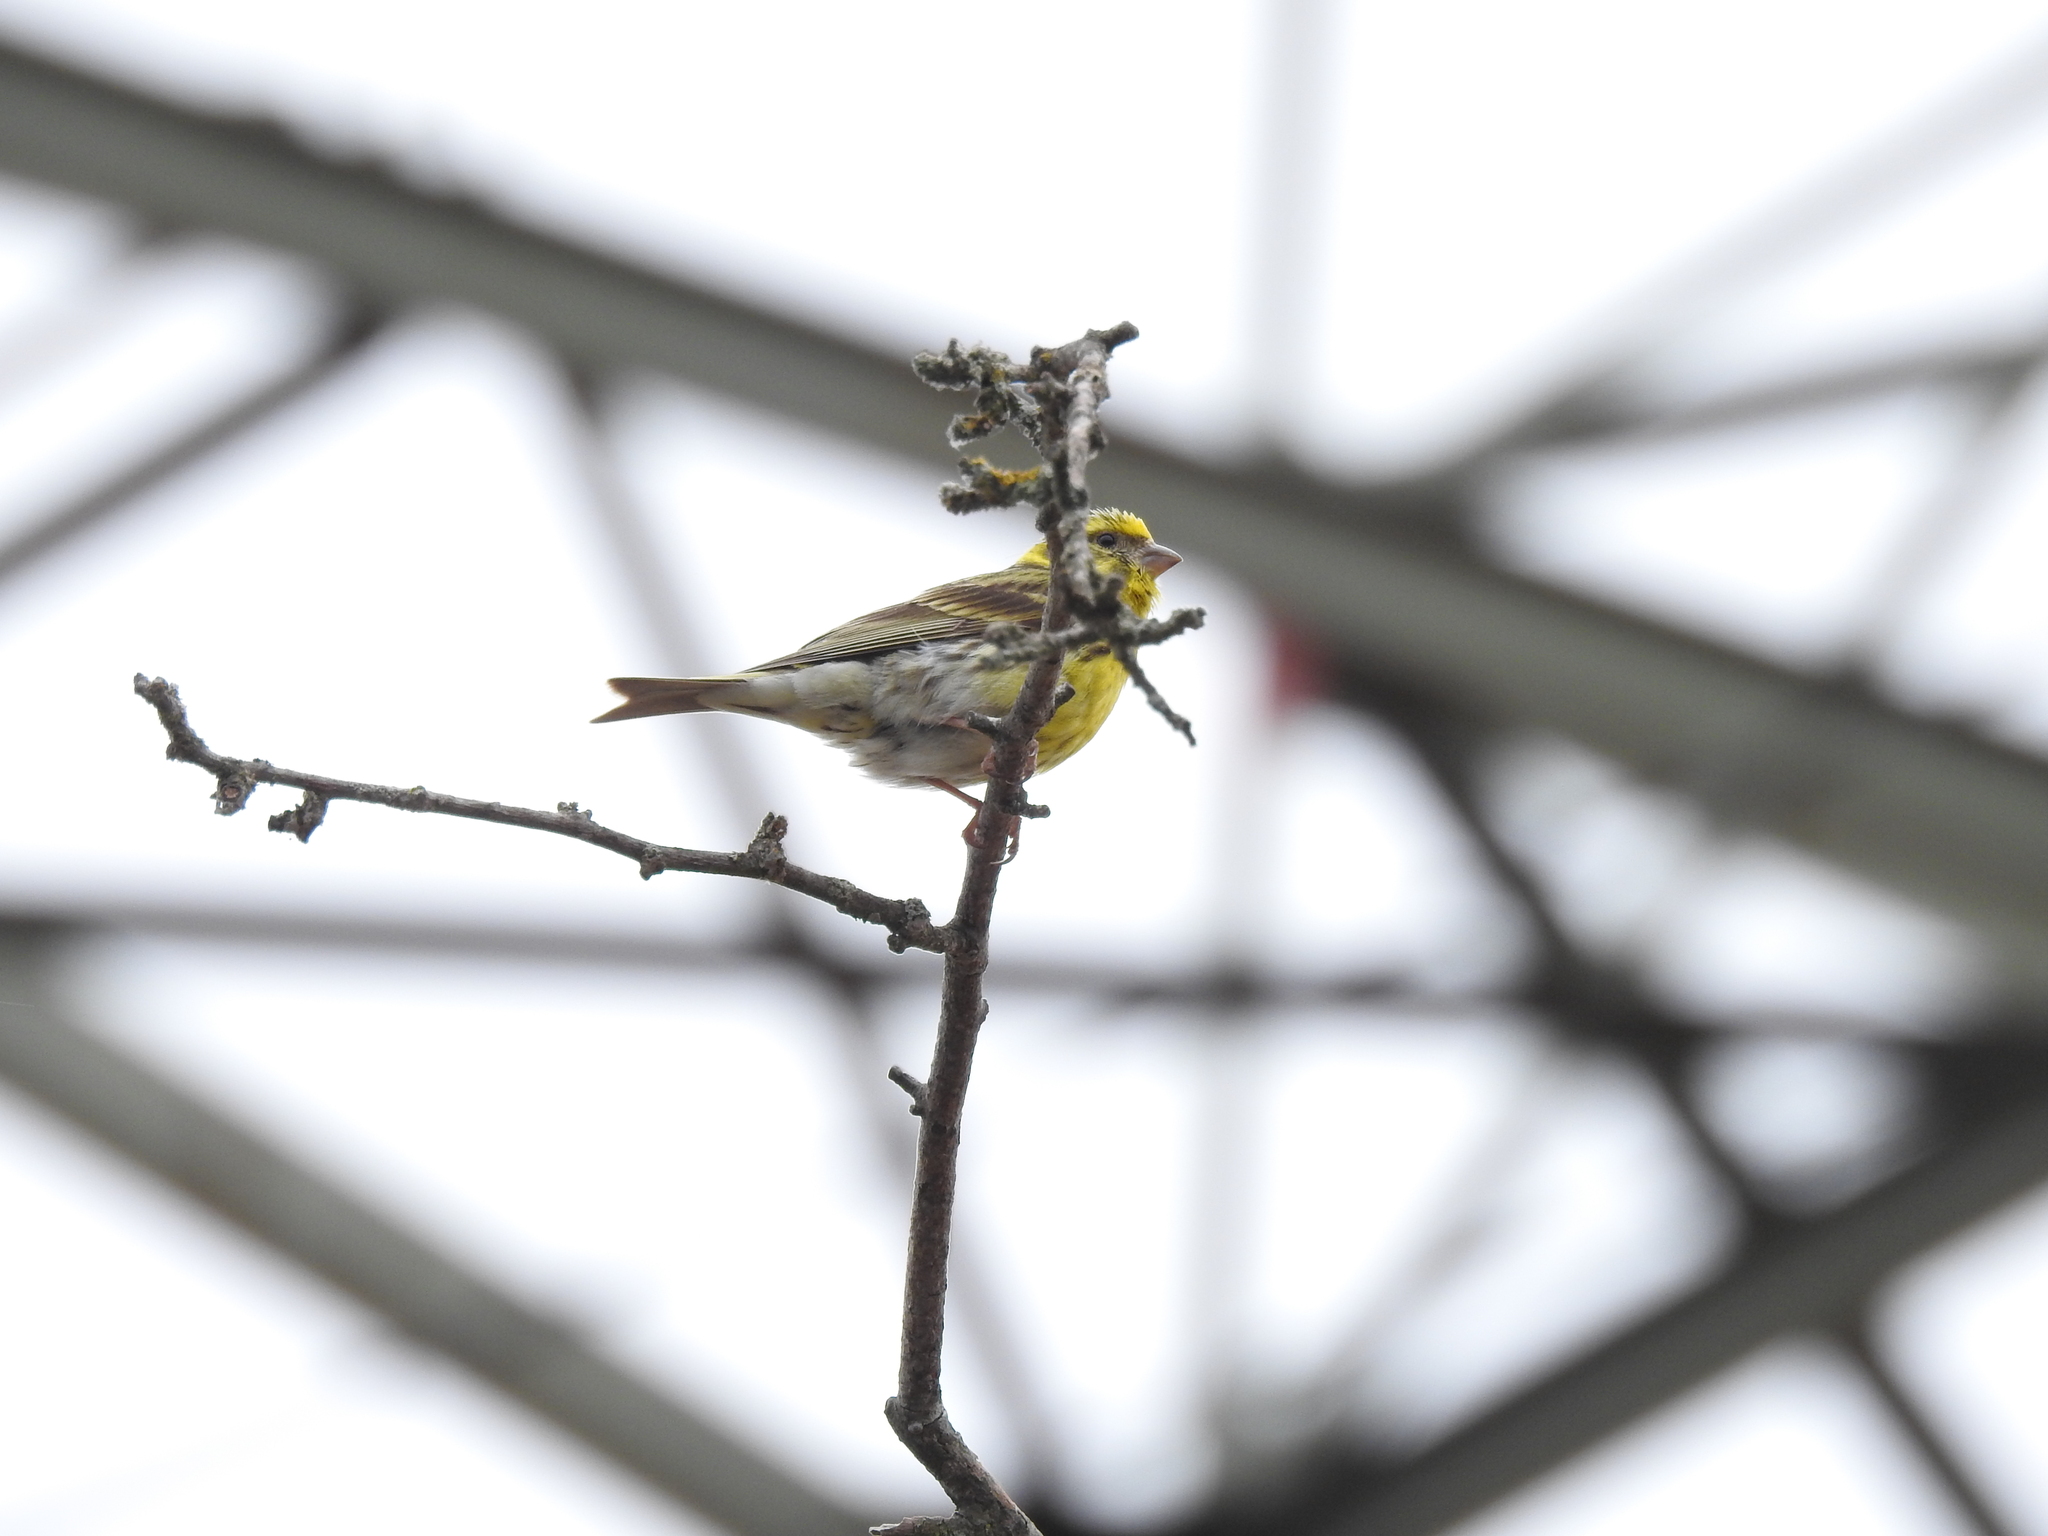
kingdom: Animalia
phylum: Chordata
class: Aves
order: Passeriformes
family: Fringillidae
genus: Serinus
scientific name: Serinus serinus
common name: European serin
